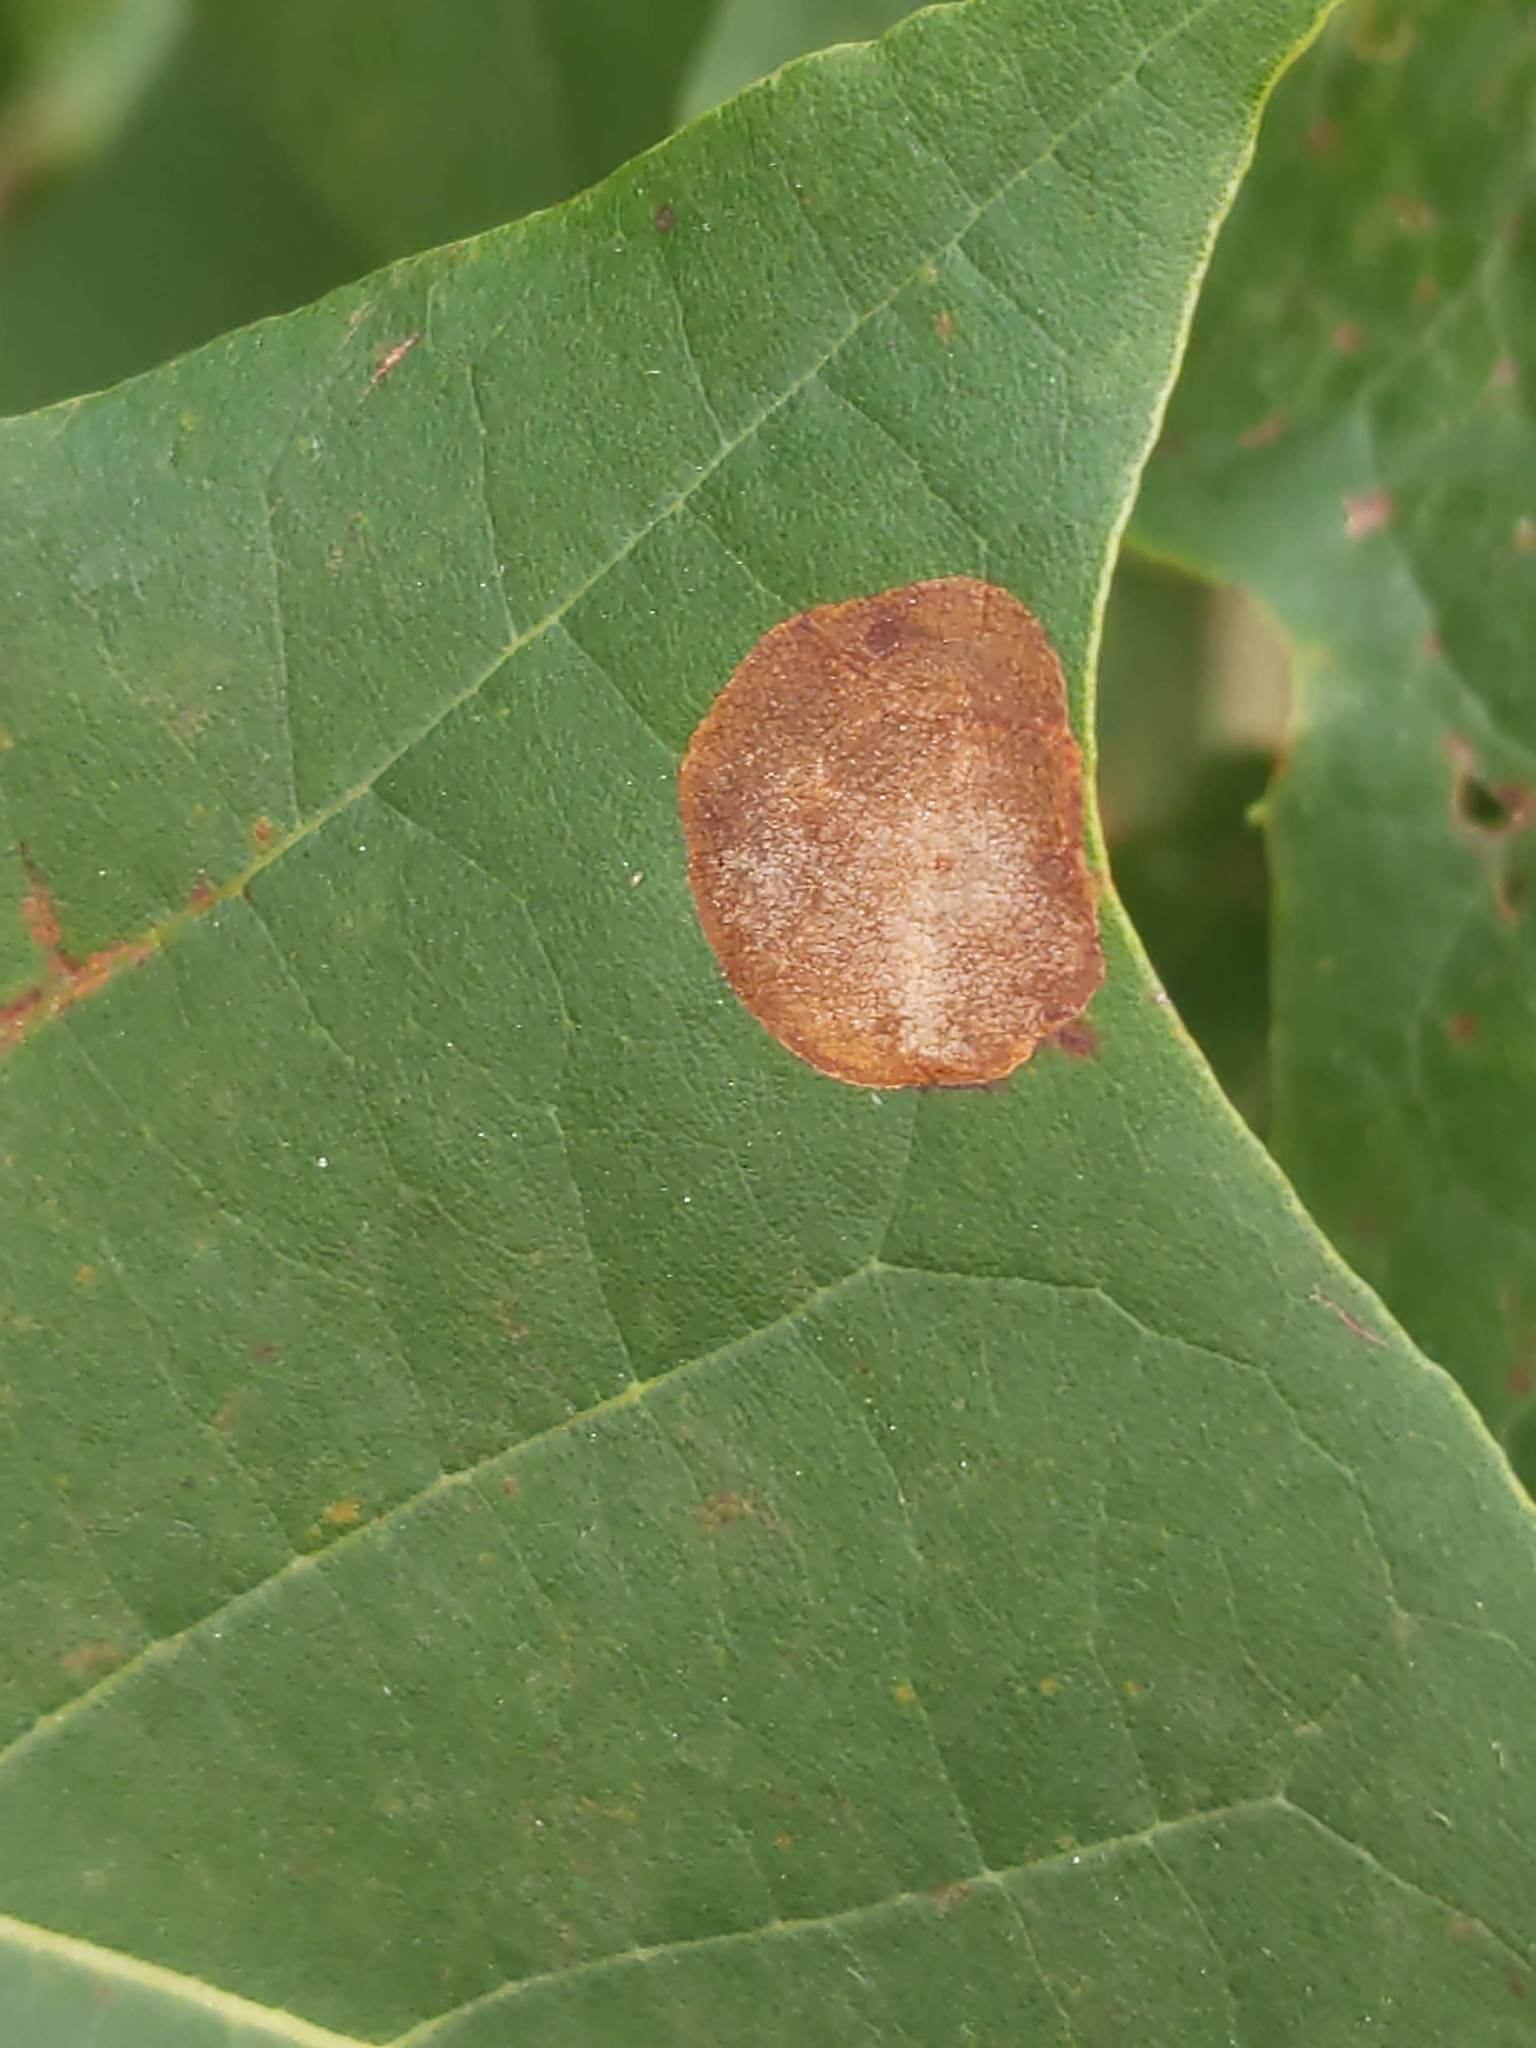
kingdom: Animalia
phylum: Arthropoda
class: Insecta
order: Lepidoptera
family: Nepticulidae
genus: Ectoedemia
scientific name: Ectoedemia platanella
